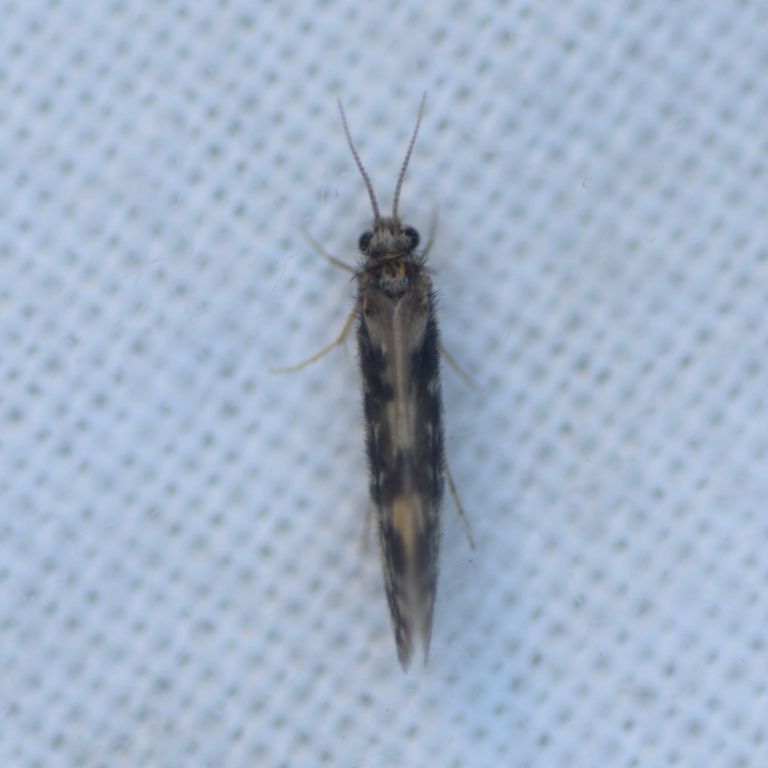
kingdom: Animalia
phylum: Arthropoda
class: Insecta
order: Trichoptera
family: Hydroptilidae
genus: Agraylea
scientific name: Agraylea multipunctata
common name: Salt and pepper microcaddisfly
